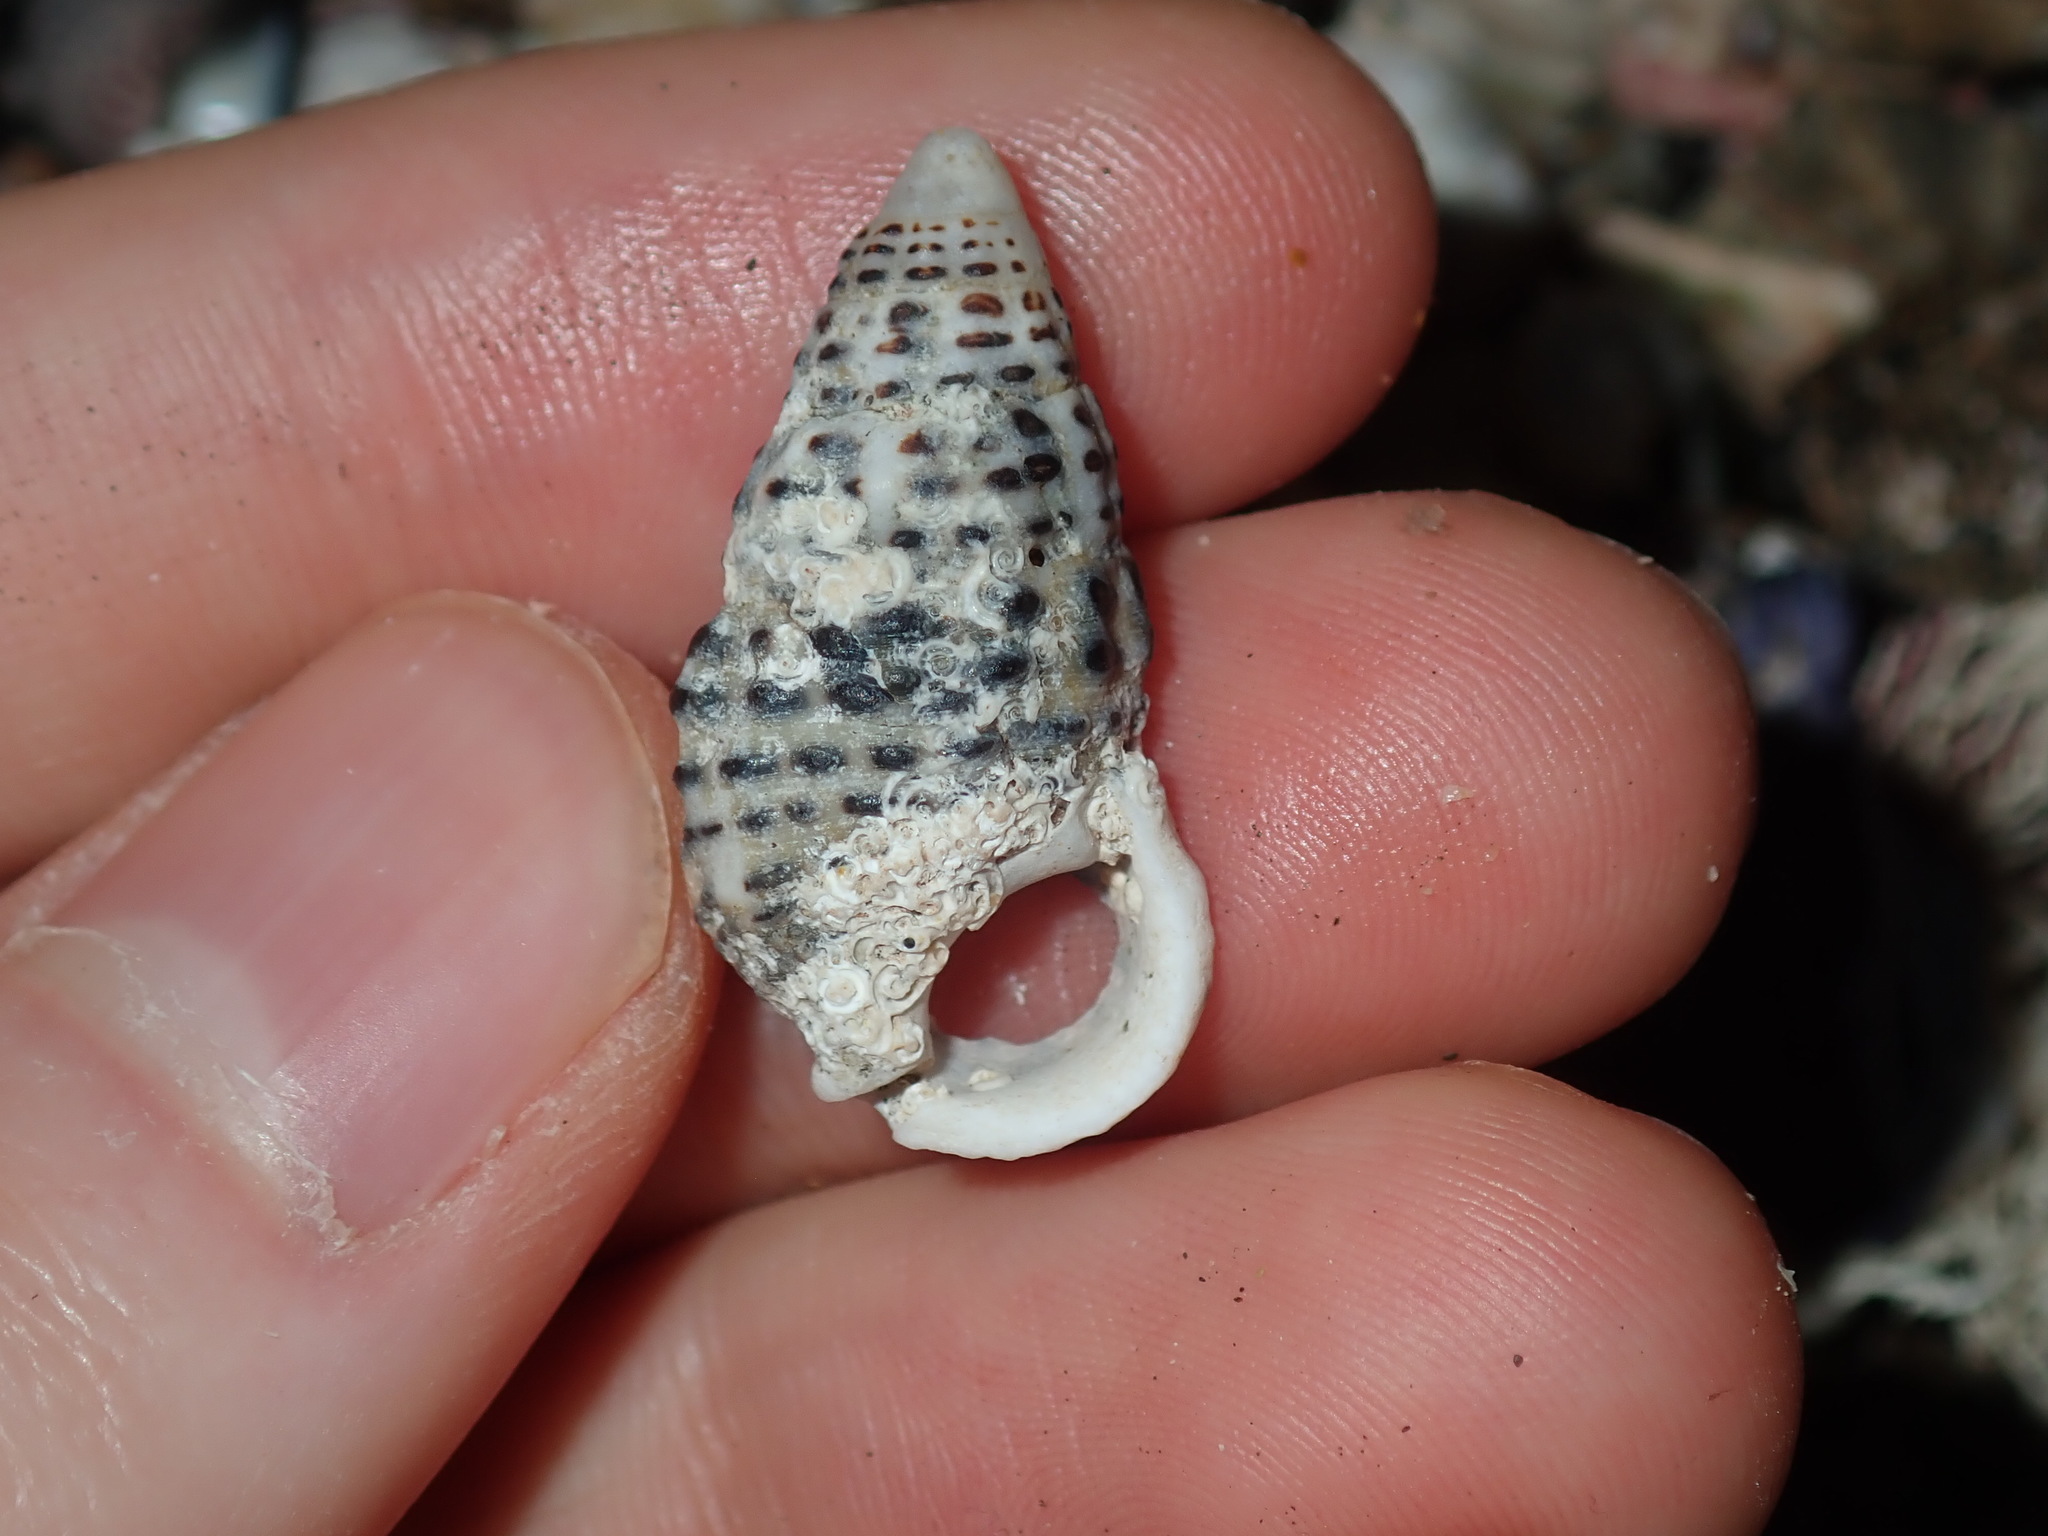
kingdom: Animalia
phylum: Mollusca
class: Gastropoda
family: Cerithiidae
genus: Clypeomorus
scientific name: Clypeomorus petrosa
